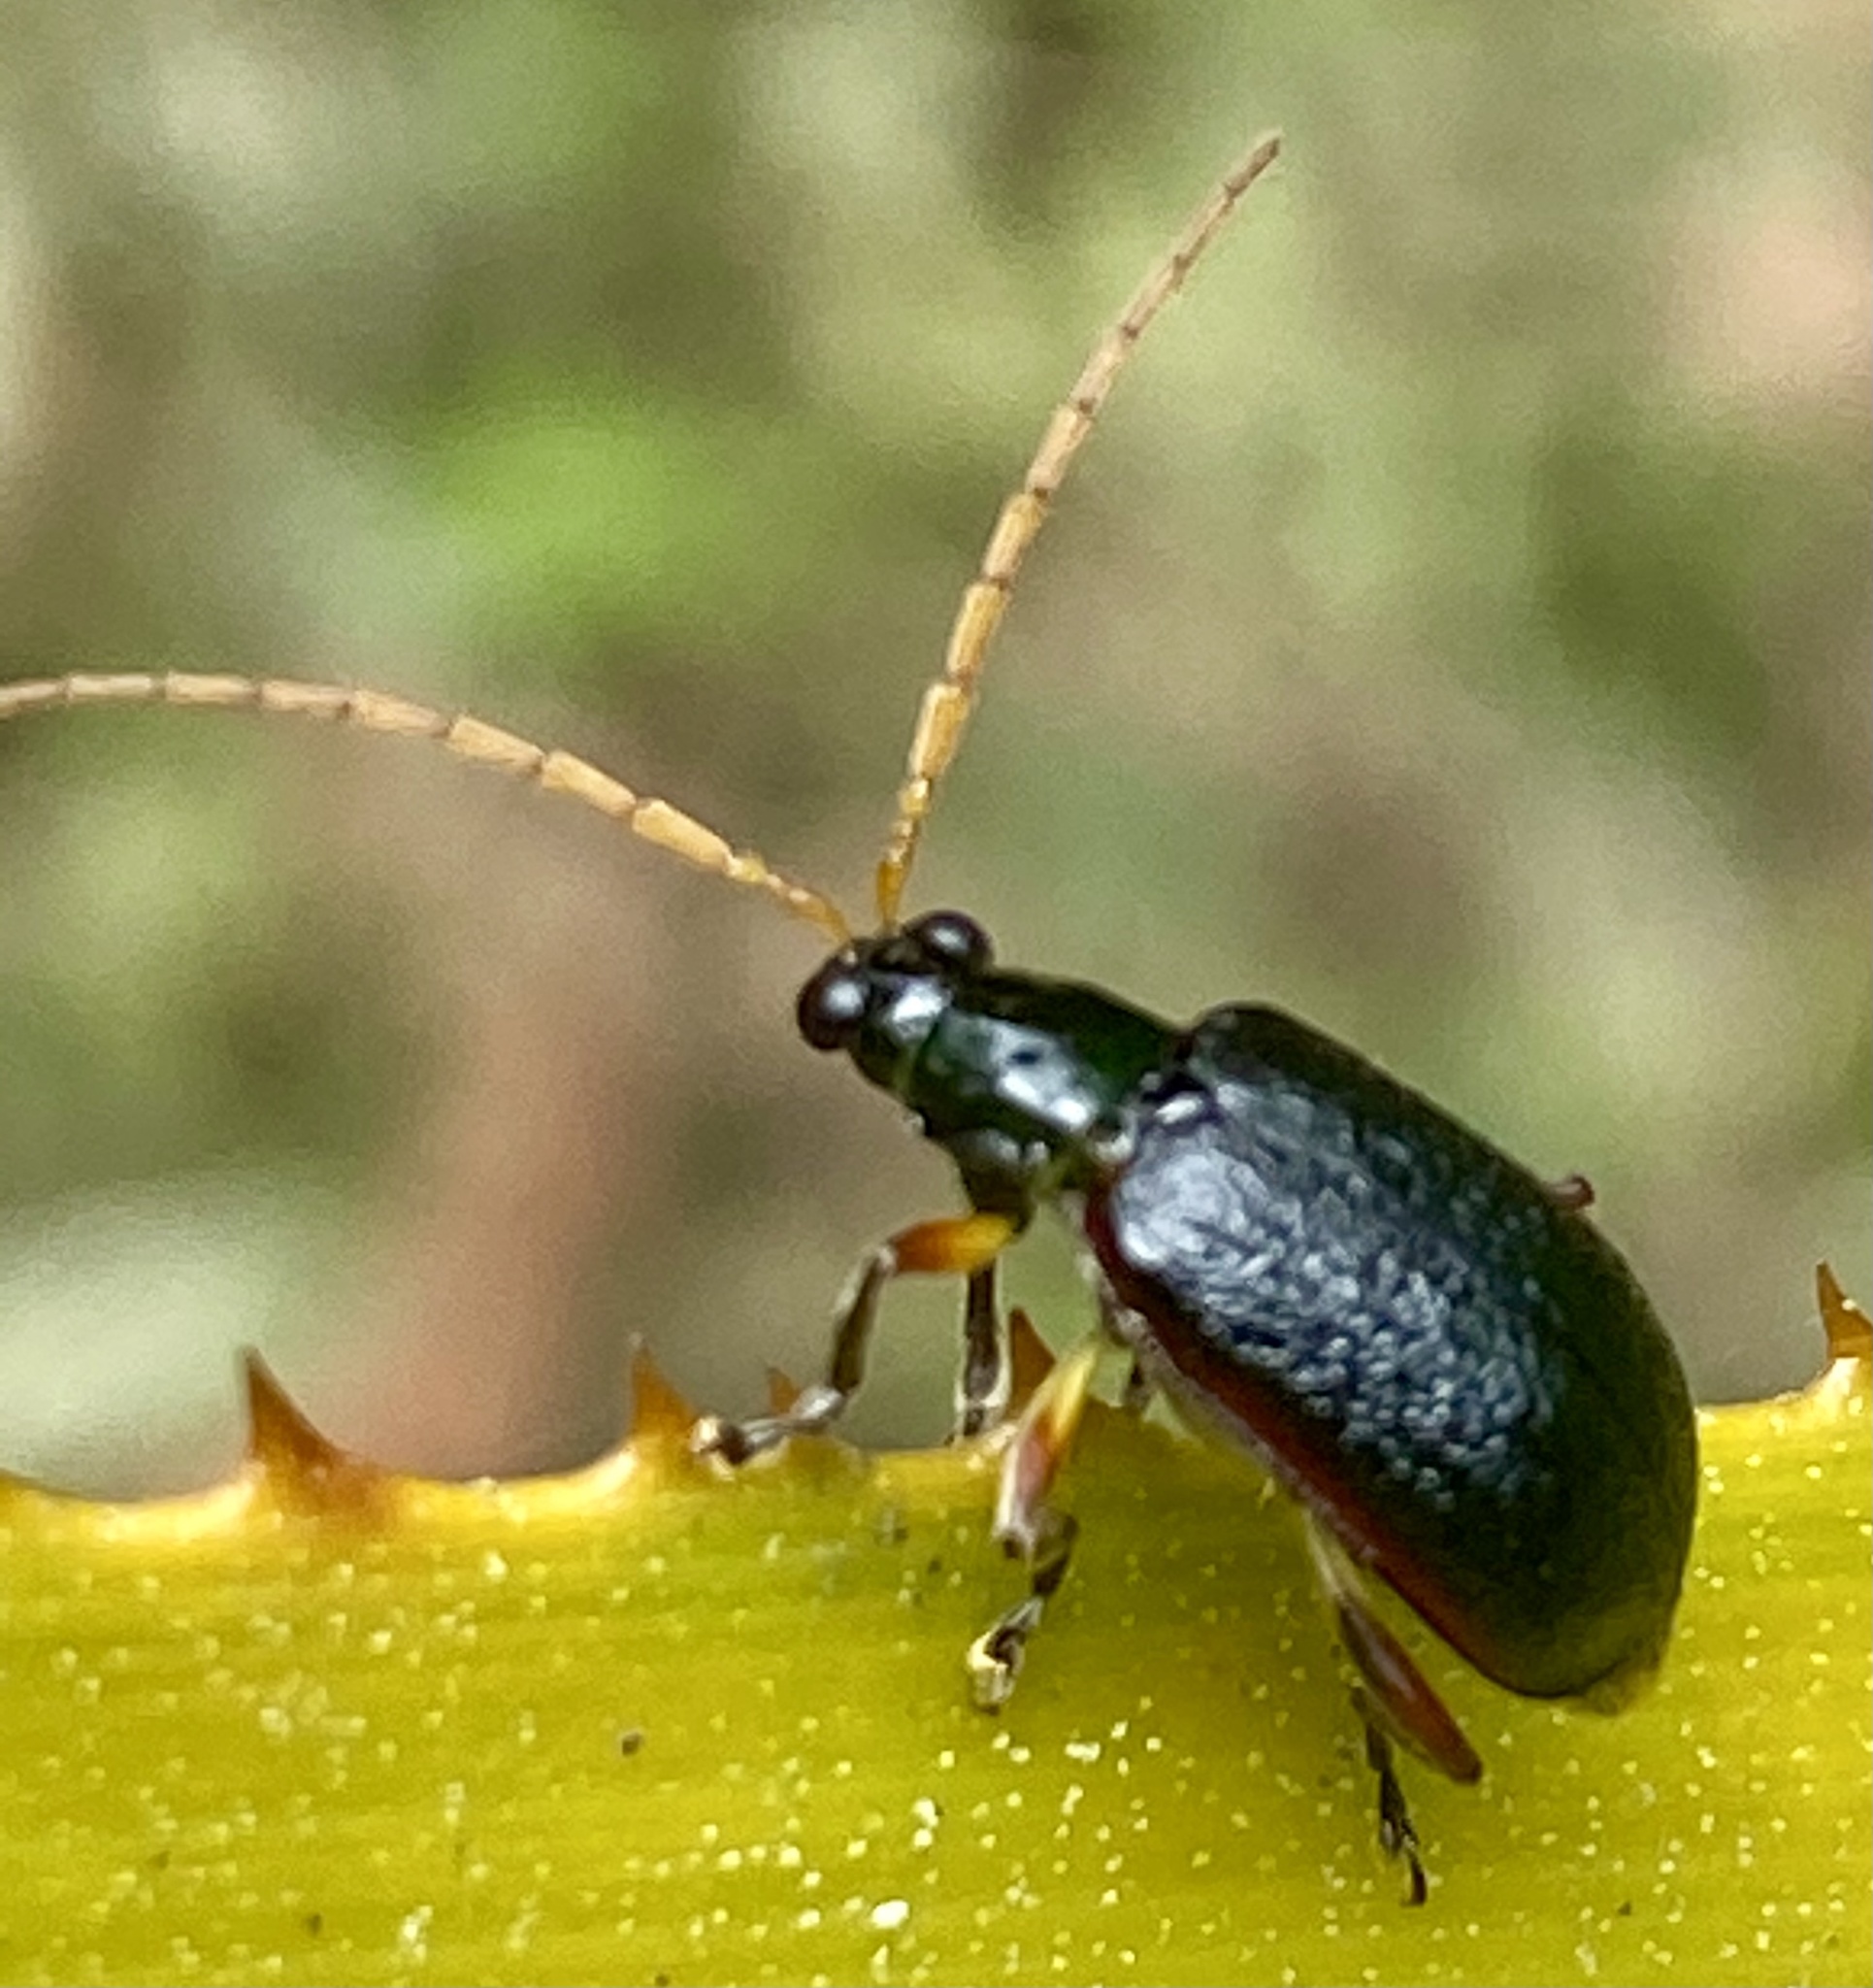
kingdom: Animalia
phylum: Arthropoda
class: Insecta
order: Coleoptera
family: Chrysomelidae
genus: Cochabamba
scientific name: Cochabamba
